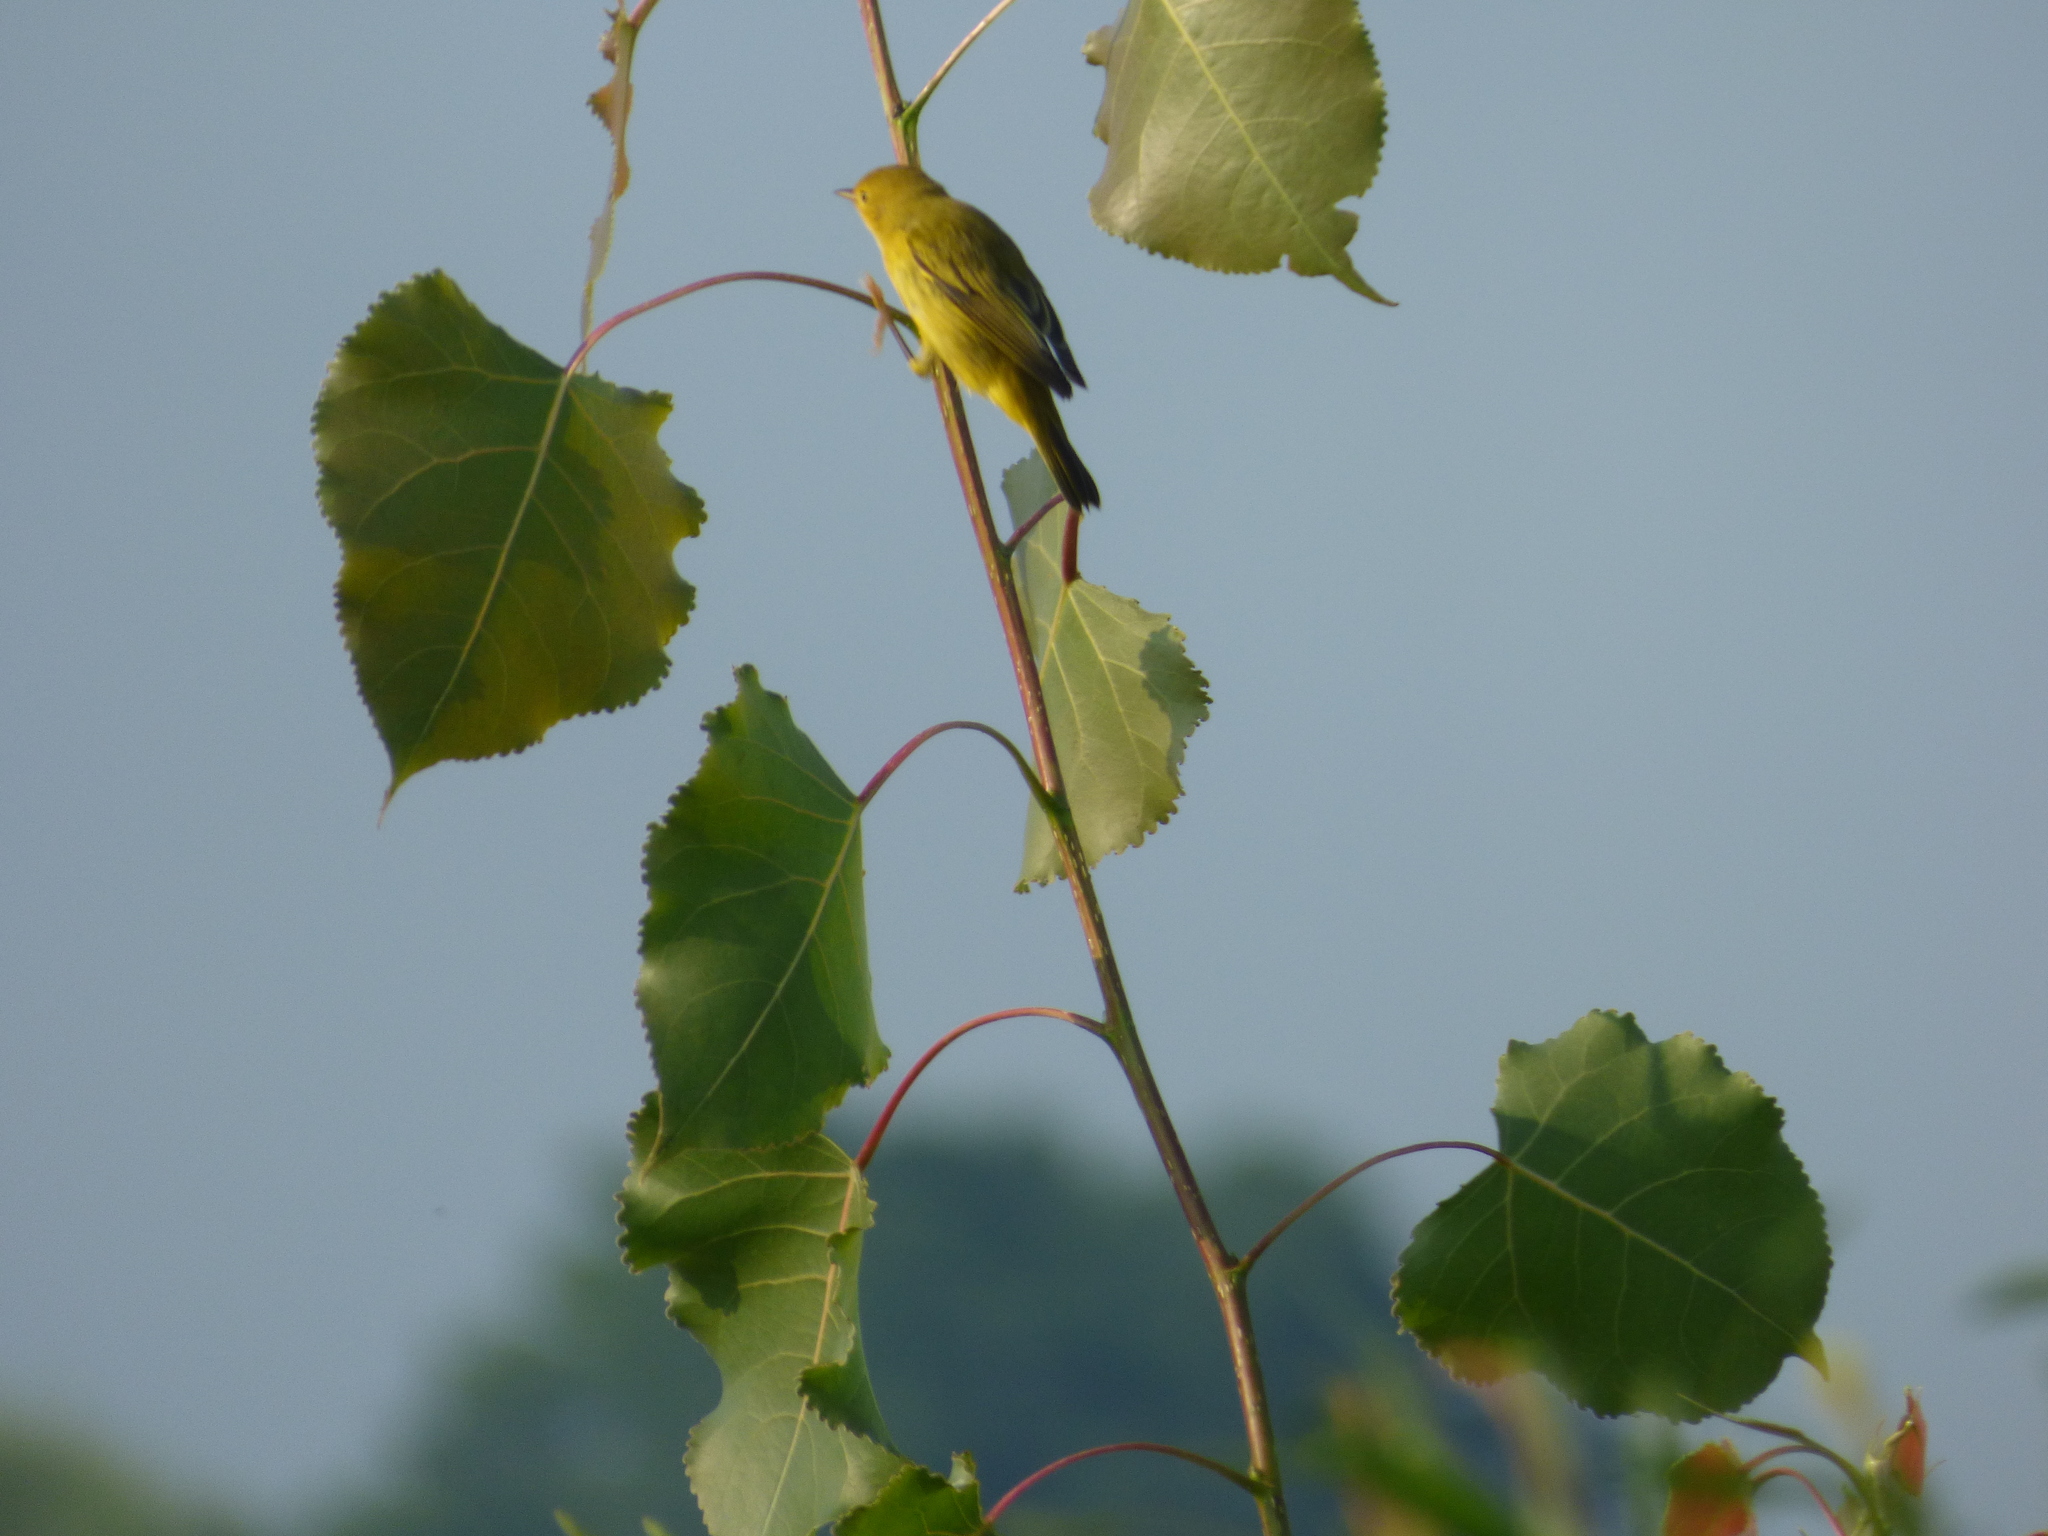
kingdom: Animalia
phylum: Chordata
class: Aves
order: Passeriformes
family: Parulidae
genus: Setophaga
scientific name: Setophaga petechia
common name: Yellow warbler
